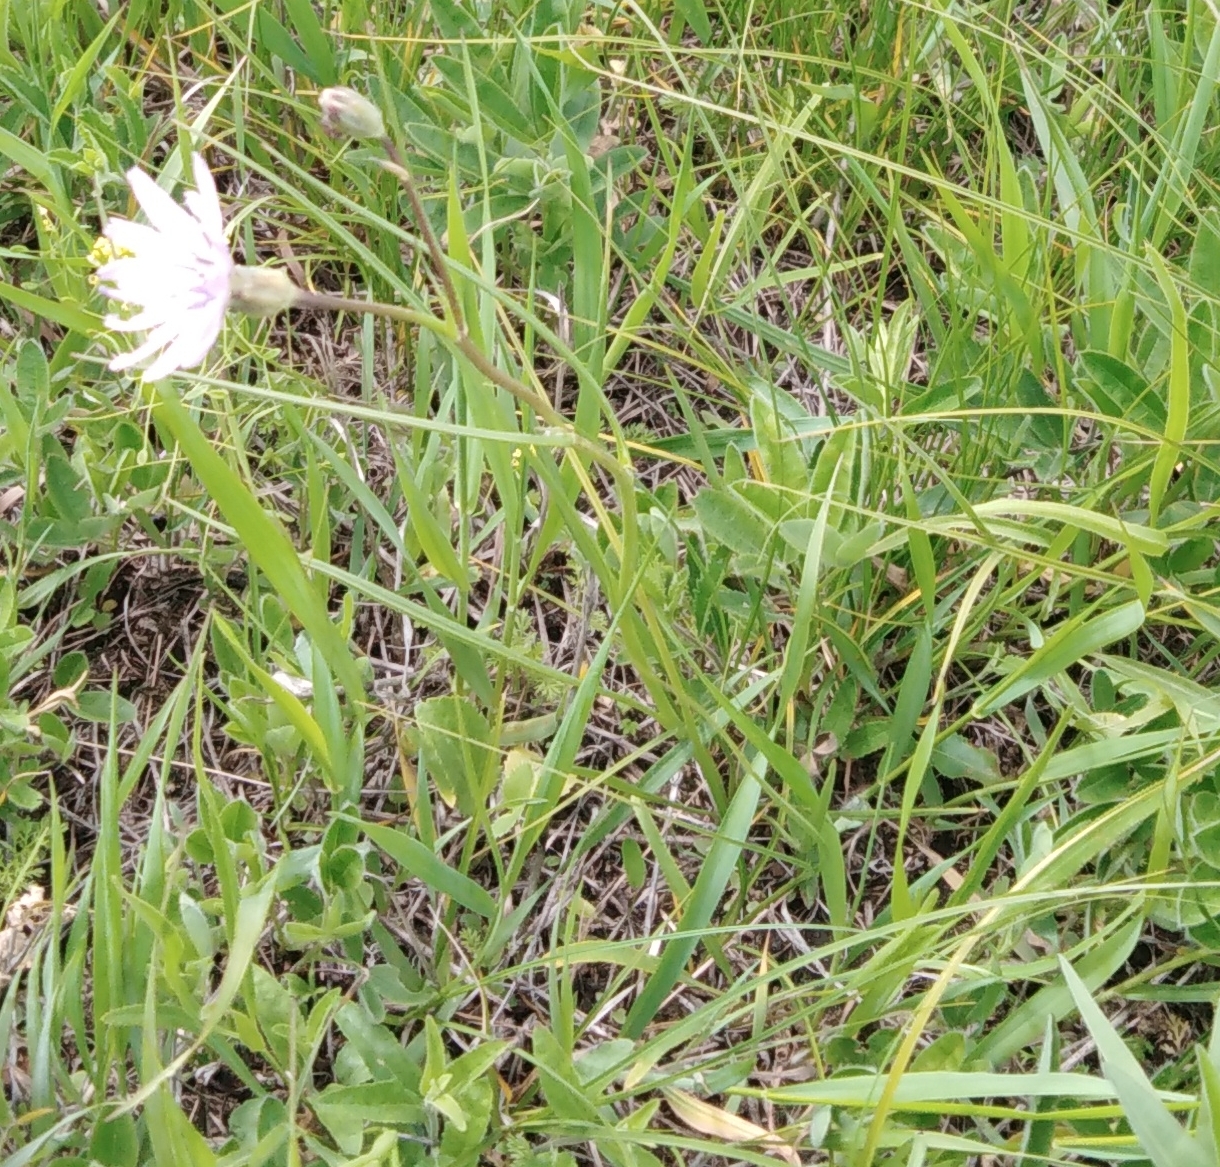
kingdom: Plantae
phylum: Tracheophyta
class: Magnoliopsida
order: Asterales
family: Asteraceae
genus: Scorzonera
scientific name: Scorzonera purpurea
